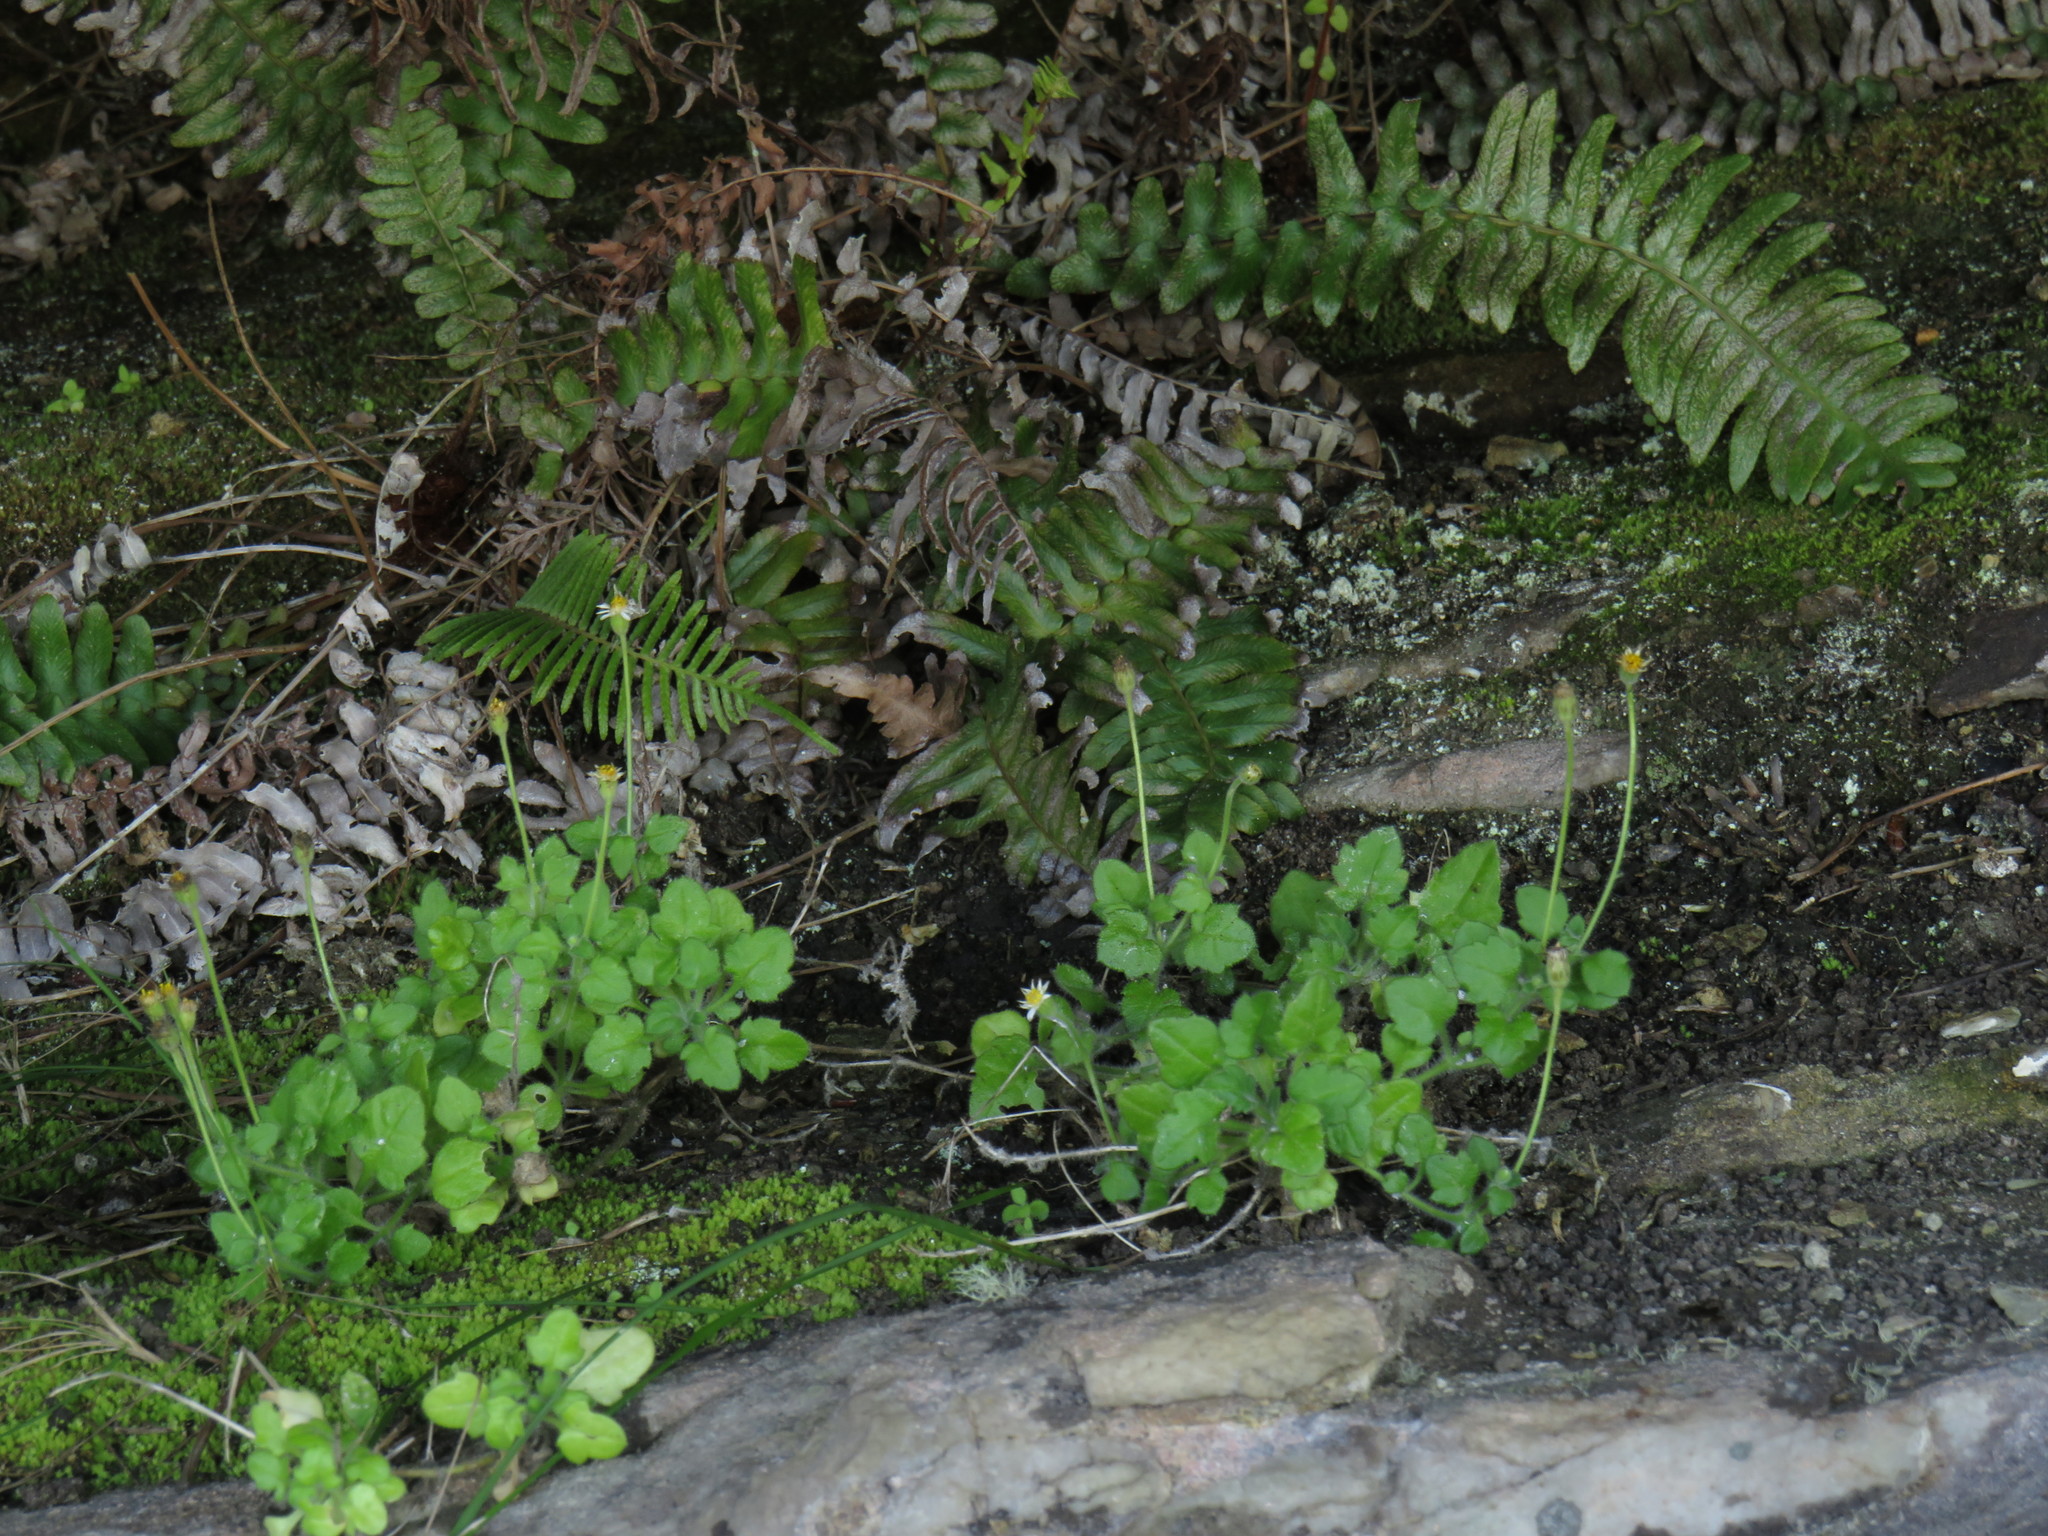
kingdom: Plantae
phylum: Tracheophyta
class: Magnoliopsida
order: Asterales
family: Asteraceae
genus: Felicia
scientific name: Felicia cymbalariae
